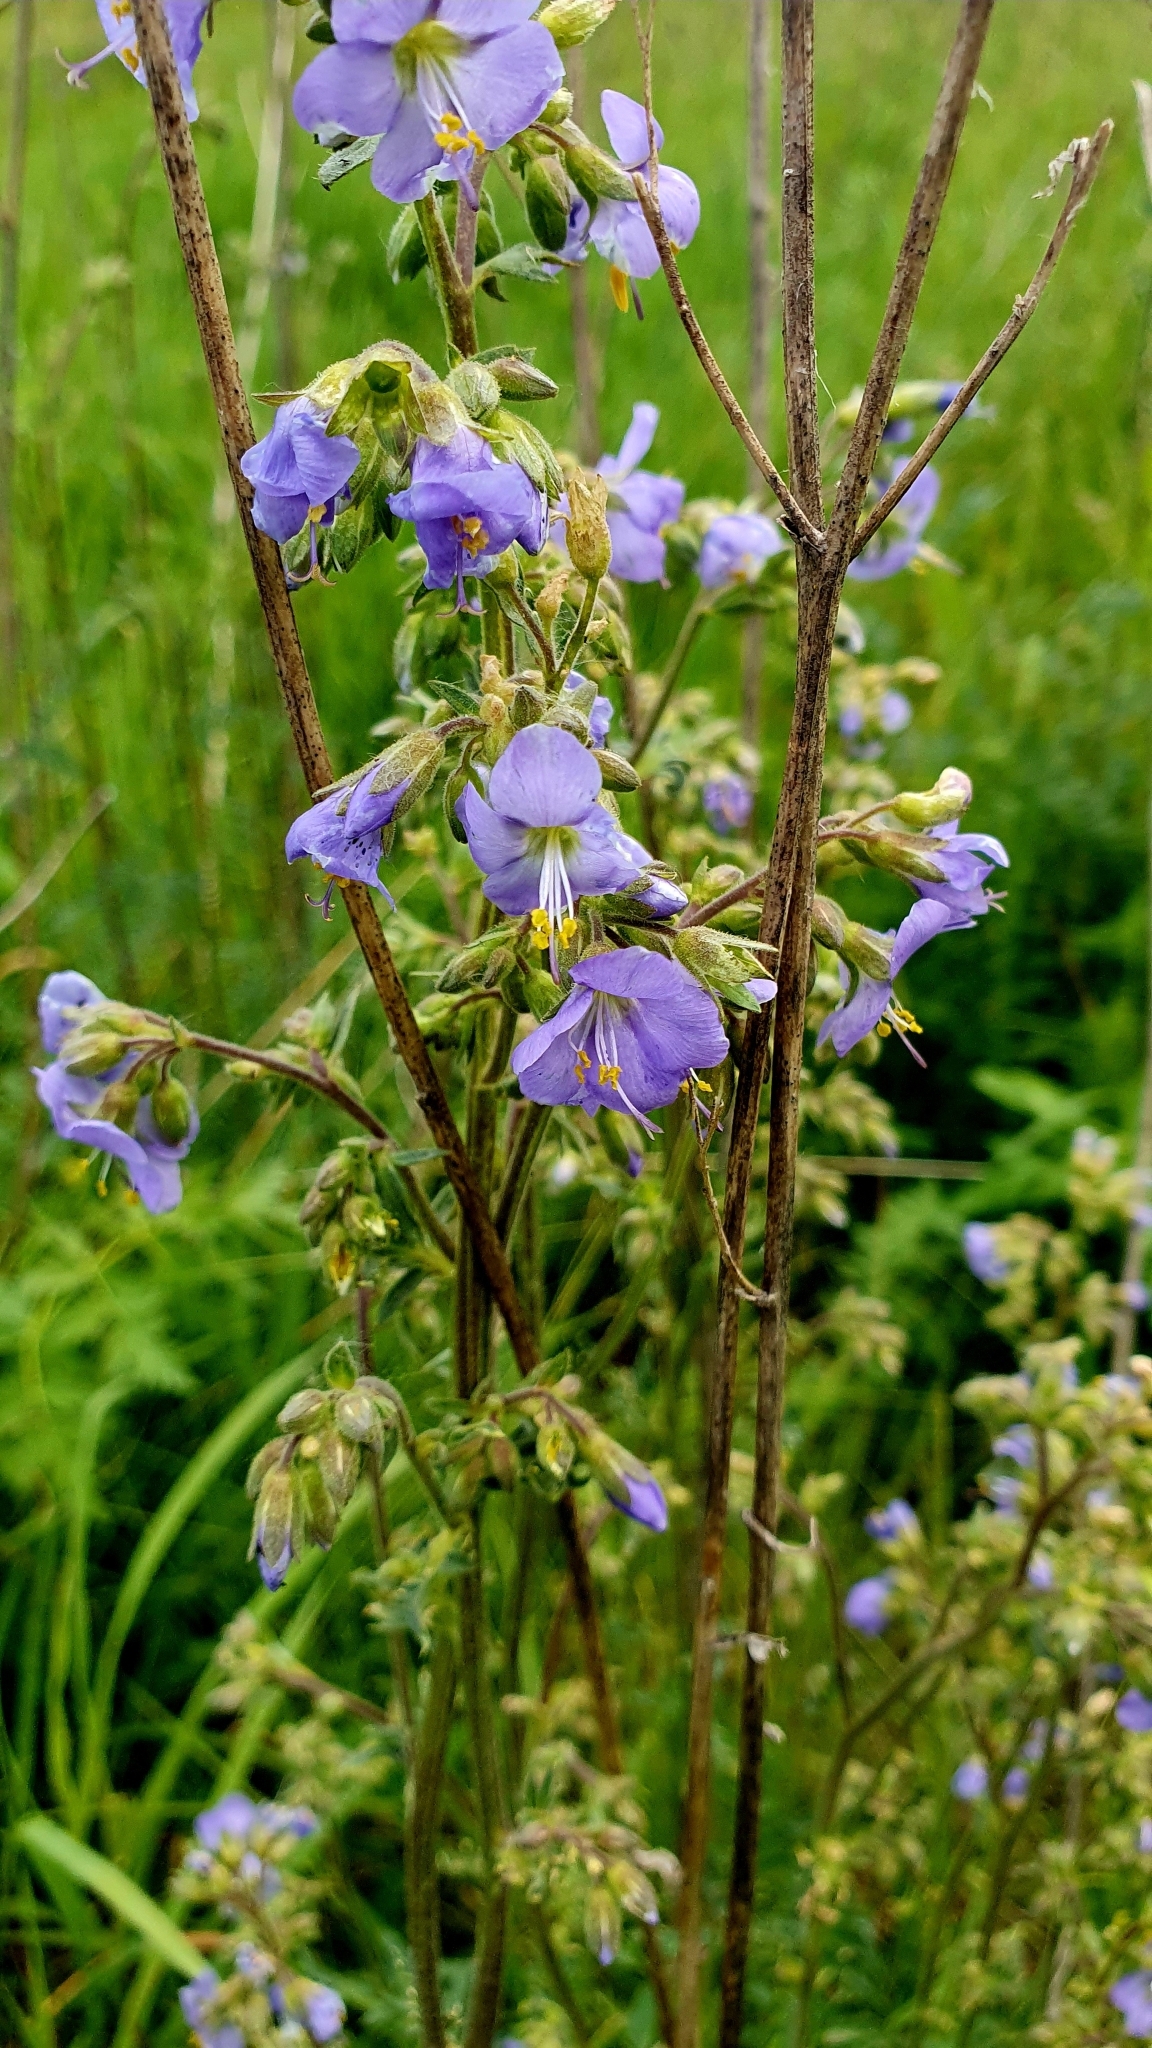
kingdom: Plantae
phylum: Tracheophyta
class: Magnoliopsida
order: Ericales
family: Polemoniaceae
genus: Polemonium
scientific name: Polemonium caeruleum
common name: Jacob's-ladder
